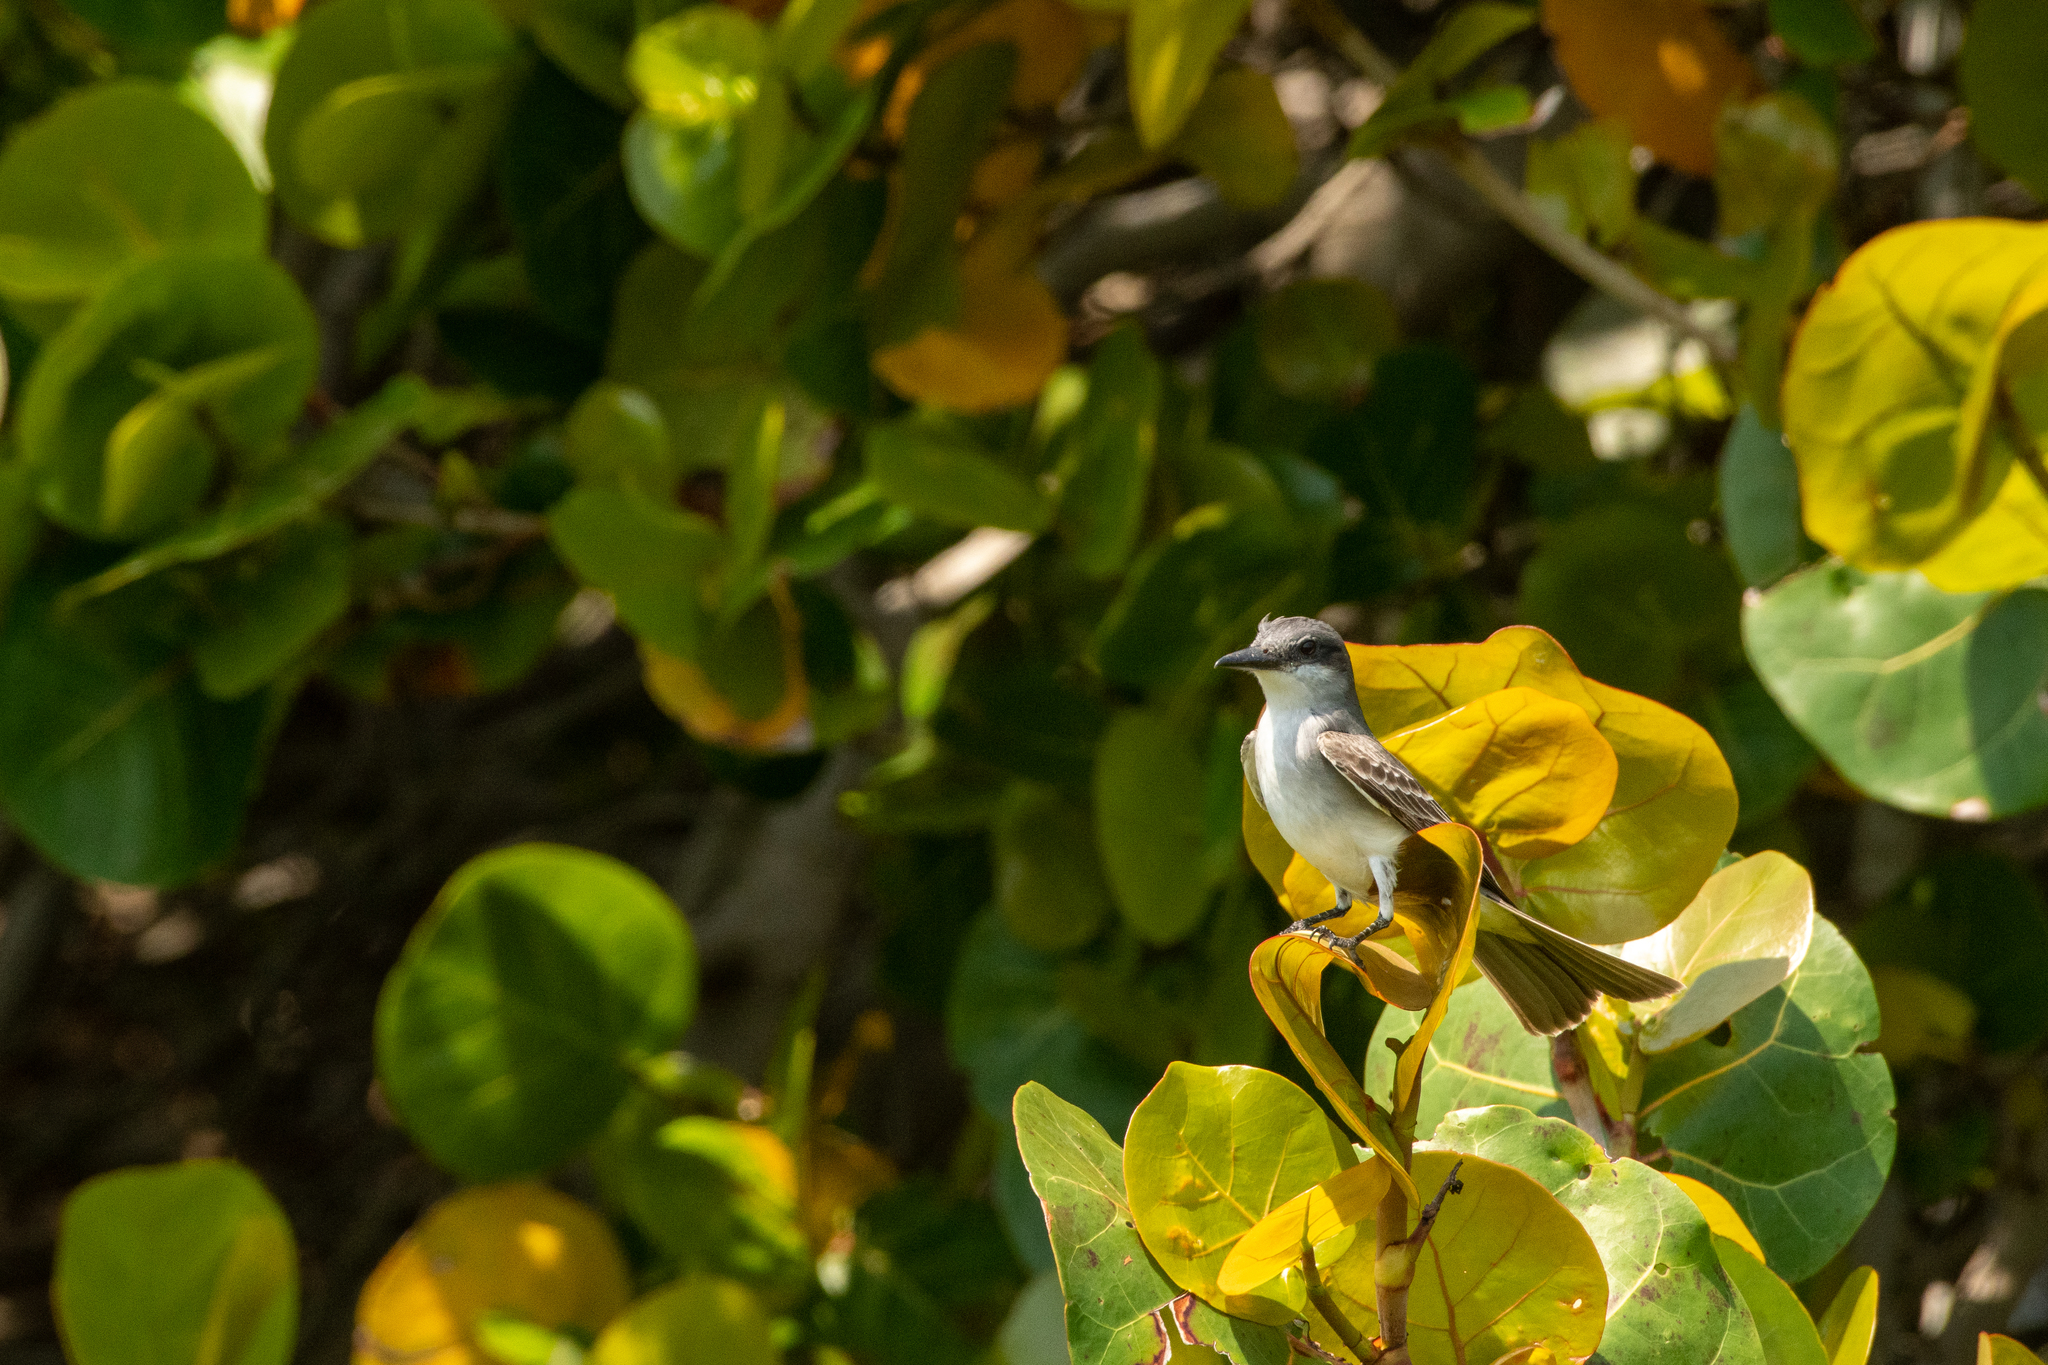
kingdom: Animalia
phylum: Chordata
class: Aves
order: Passeriformes
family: Tyrannidae
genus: Tyrannus
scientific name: Tyrannus dominicensis
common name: Gray kingbird
